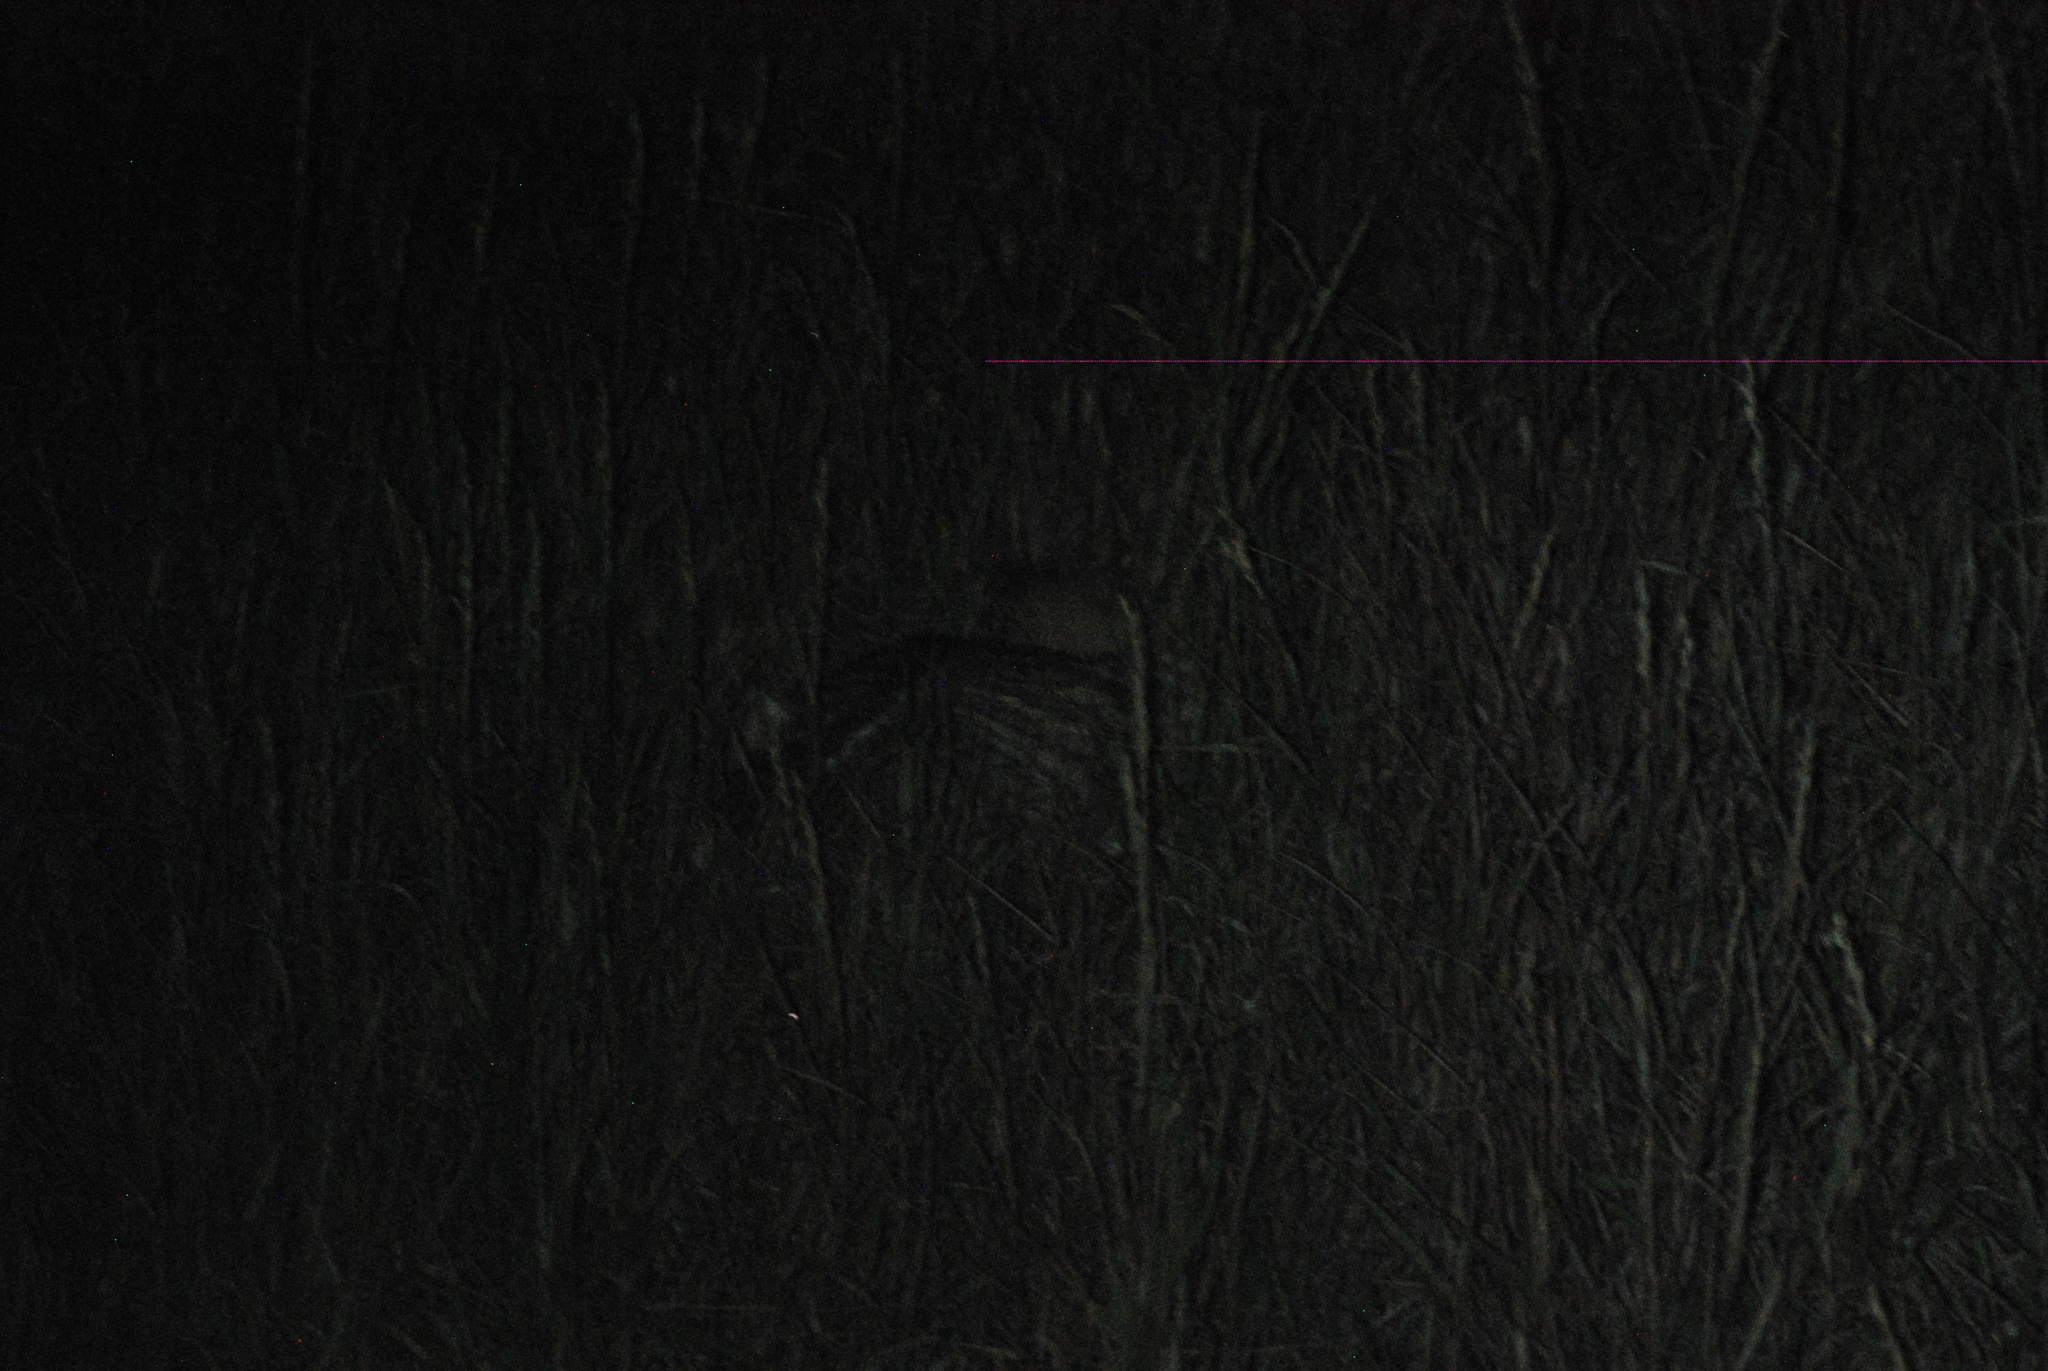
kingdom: Animalia
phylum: Chordata
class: Mammalia
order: Carnivora
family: Mustelidae
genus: Taxidea
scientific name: Taxidea taxus
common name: American badger
